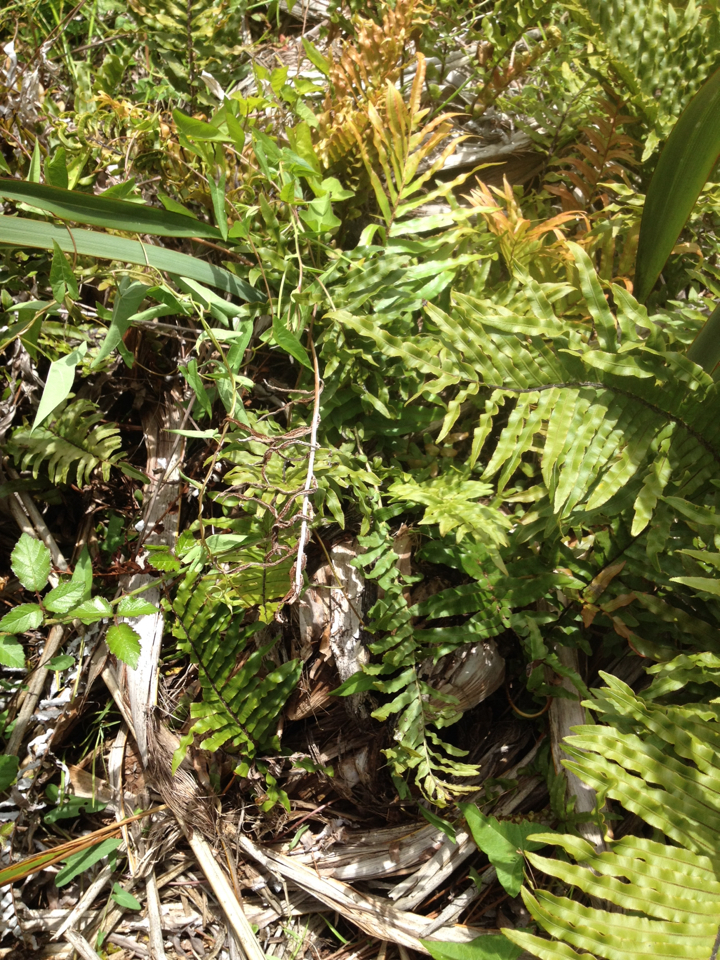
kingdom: Plantae
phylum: Tracheophyta
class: Polypodiopsida
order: Polypodiales
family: Blechnaceae
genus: Parablechnum
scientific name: Parablechnum minus
